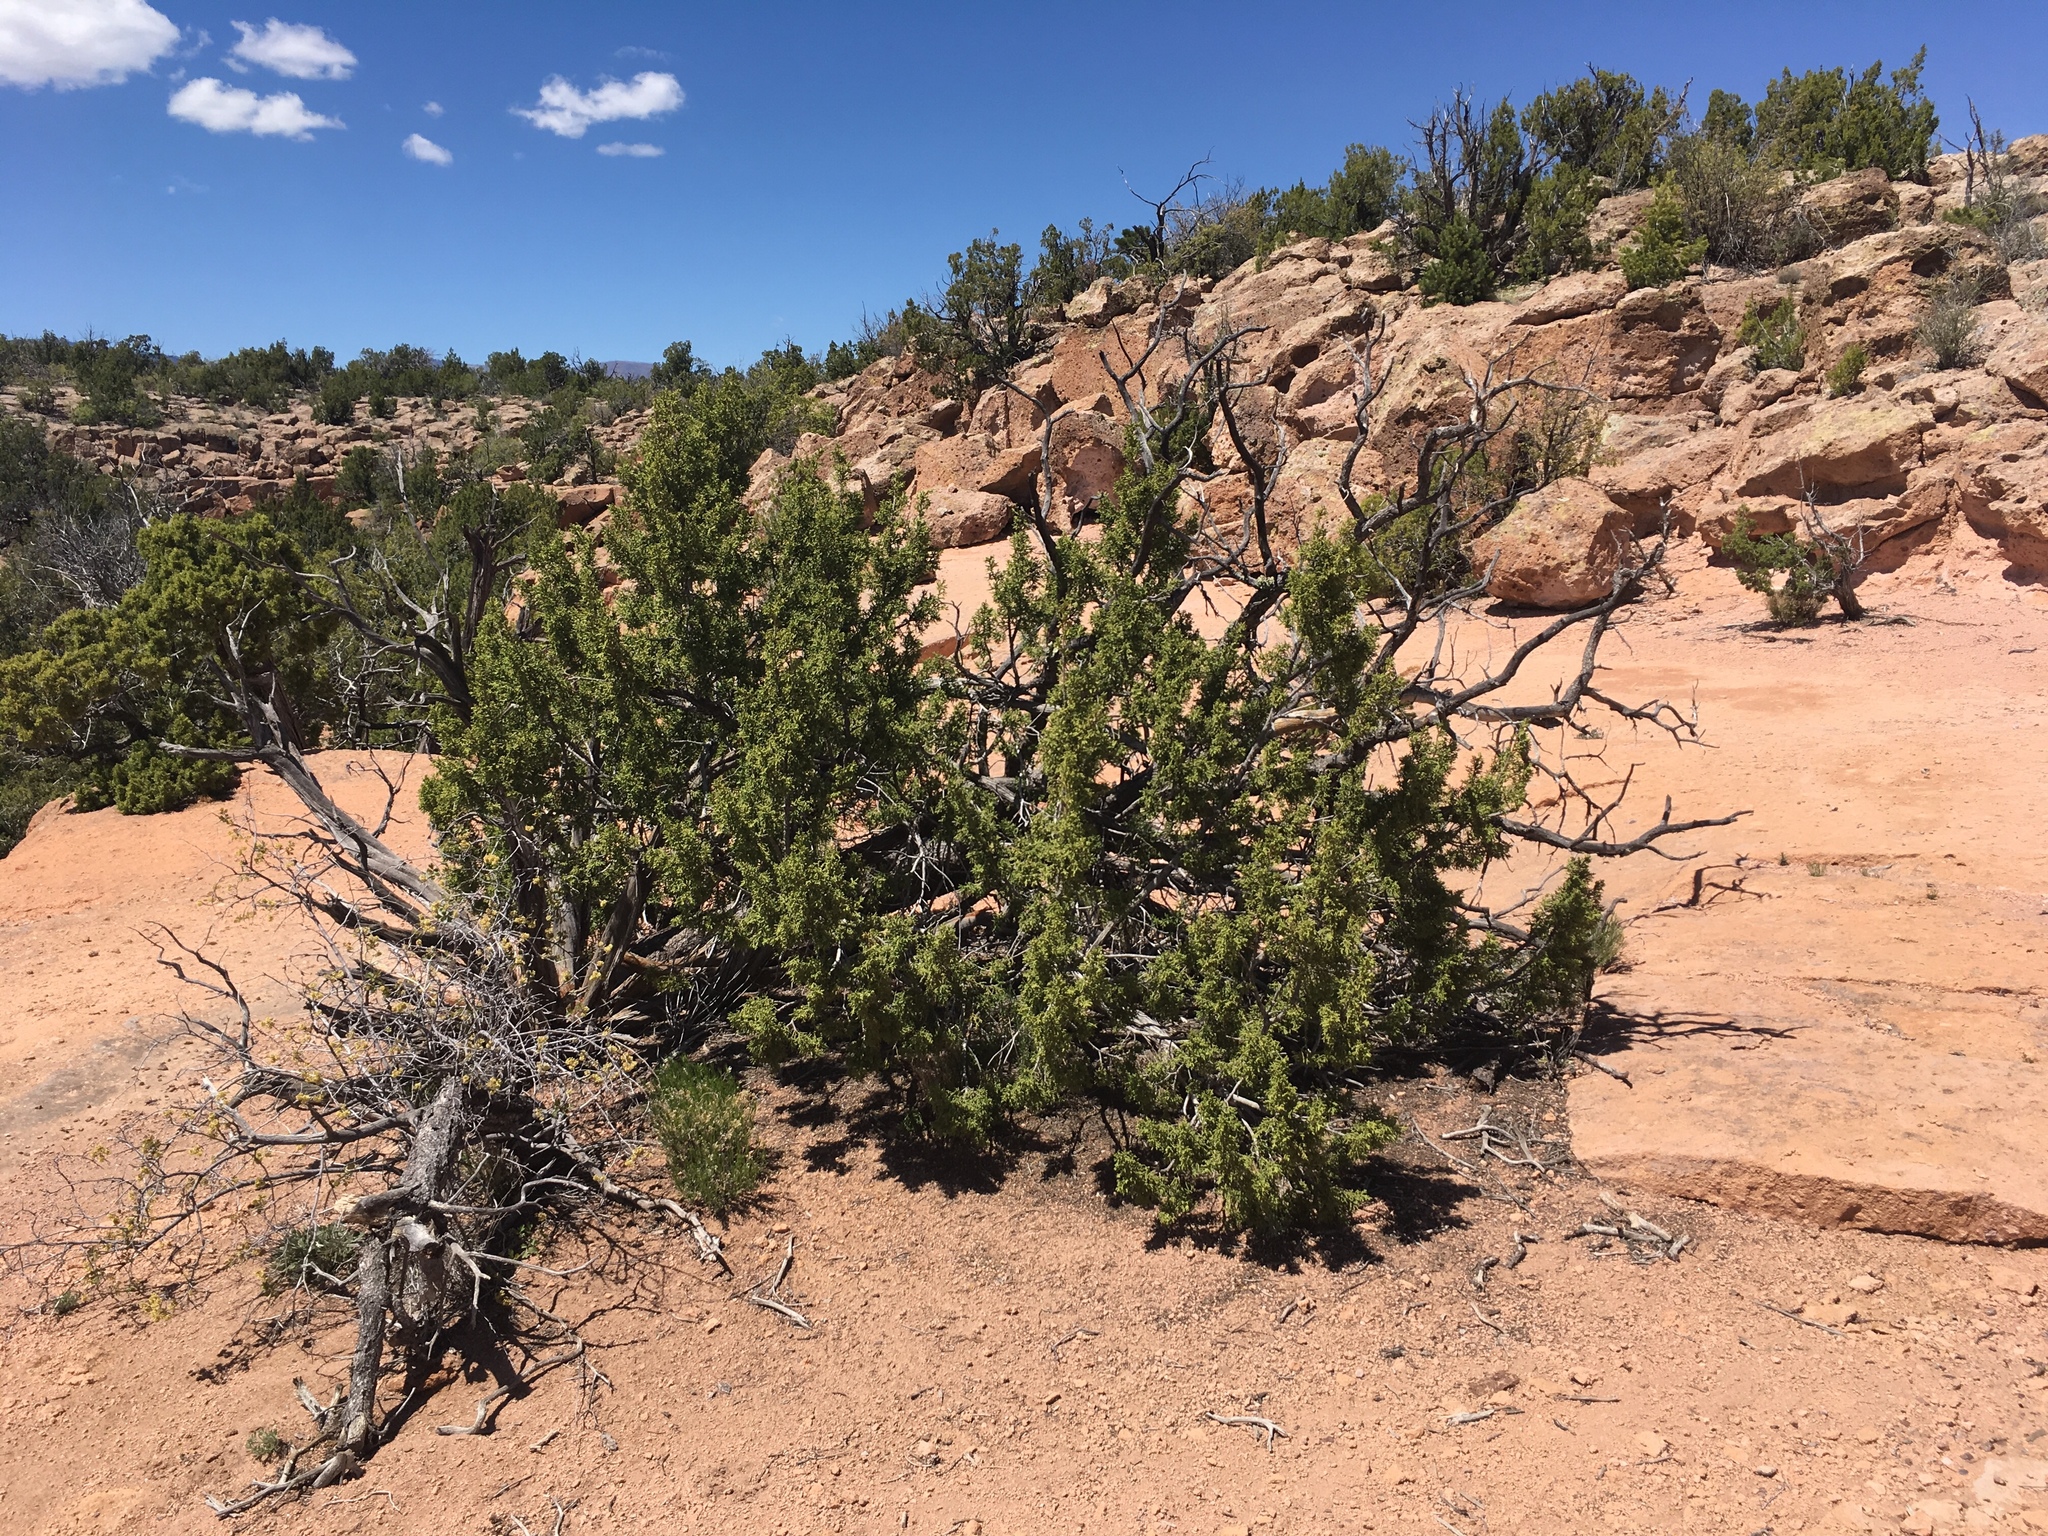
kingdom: Plantae
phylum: Tracheophyta
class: Pinopsida
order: Pinales
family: Cupressaceae
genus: Juniperus
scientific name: Juniperus monosperma
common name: One-seed juniper
